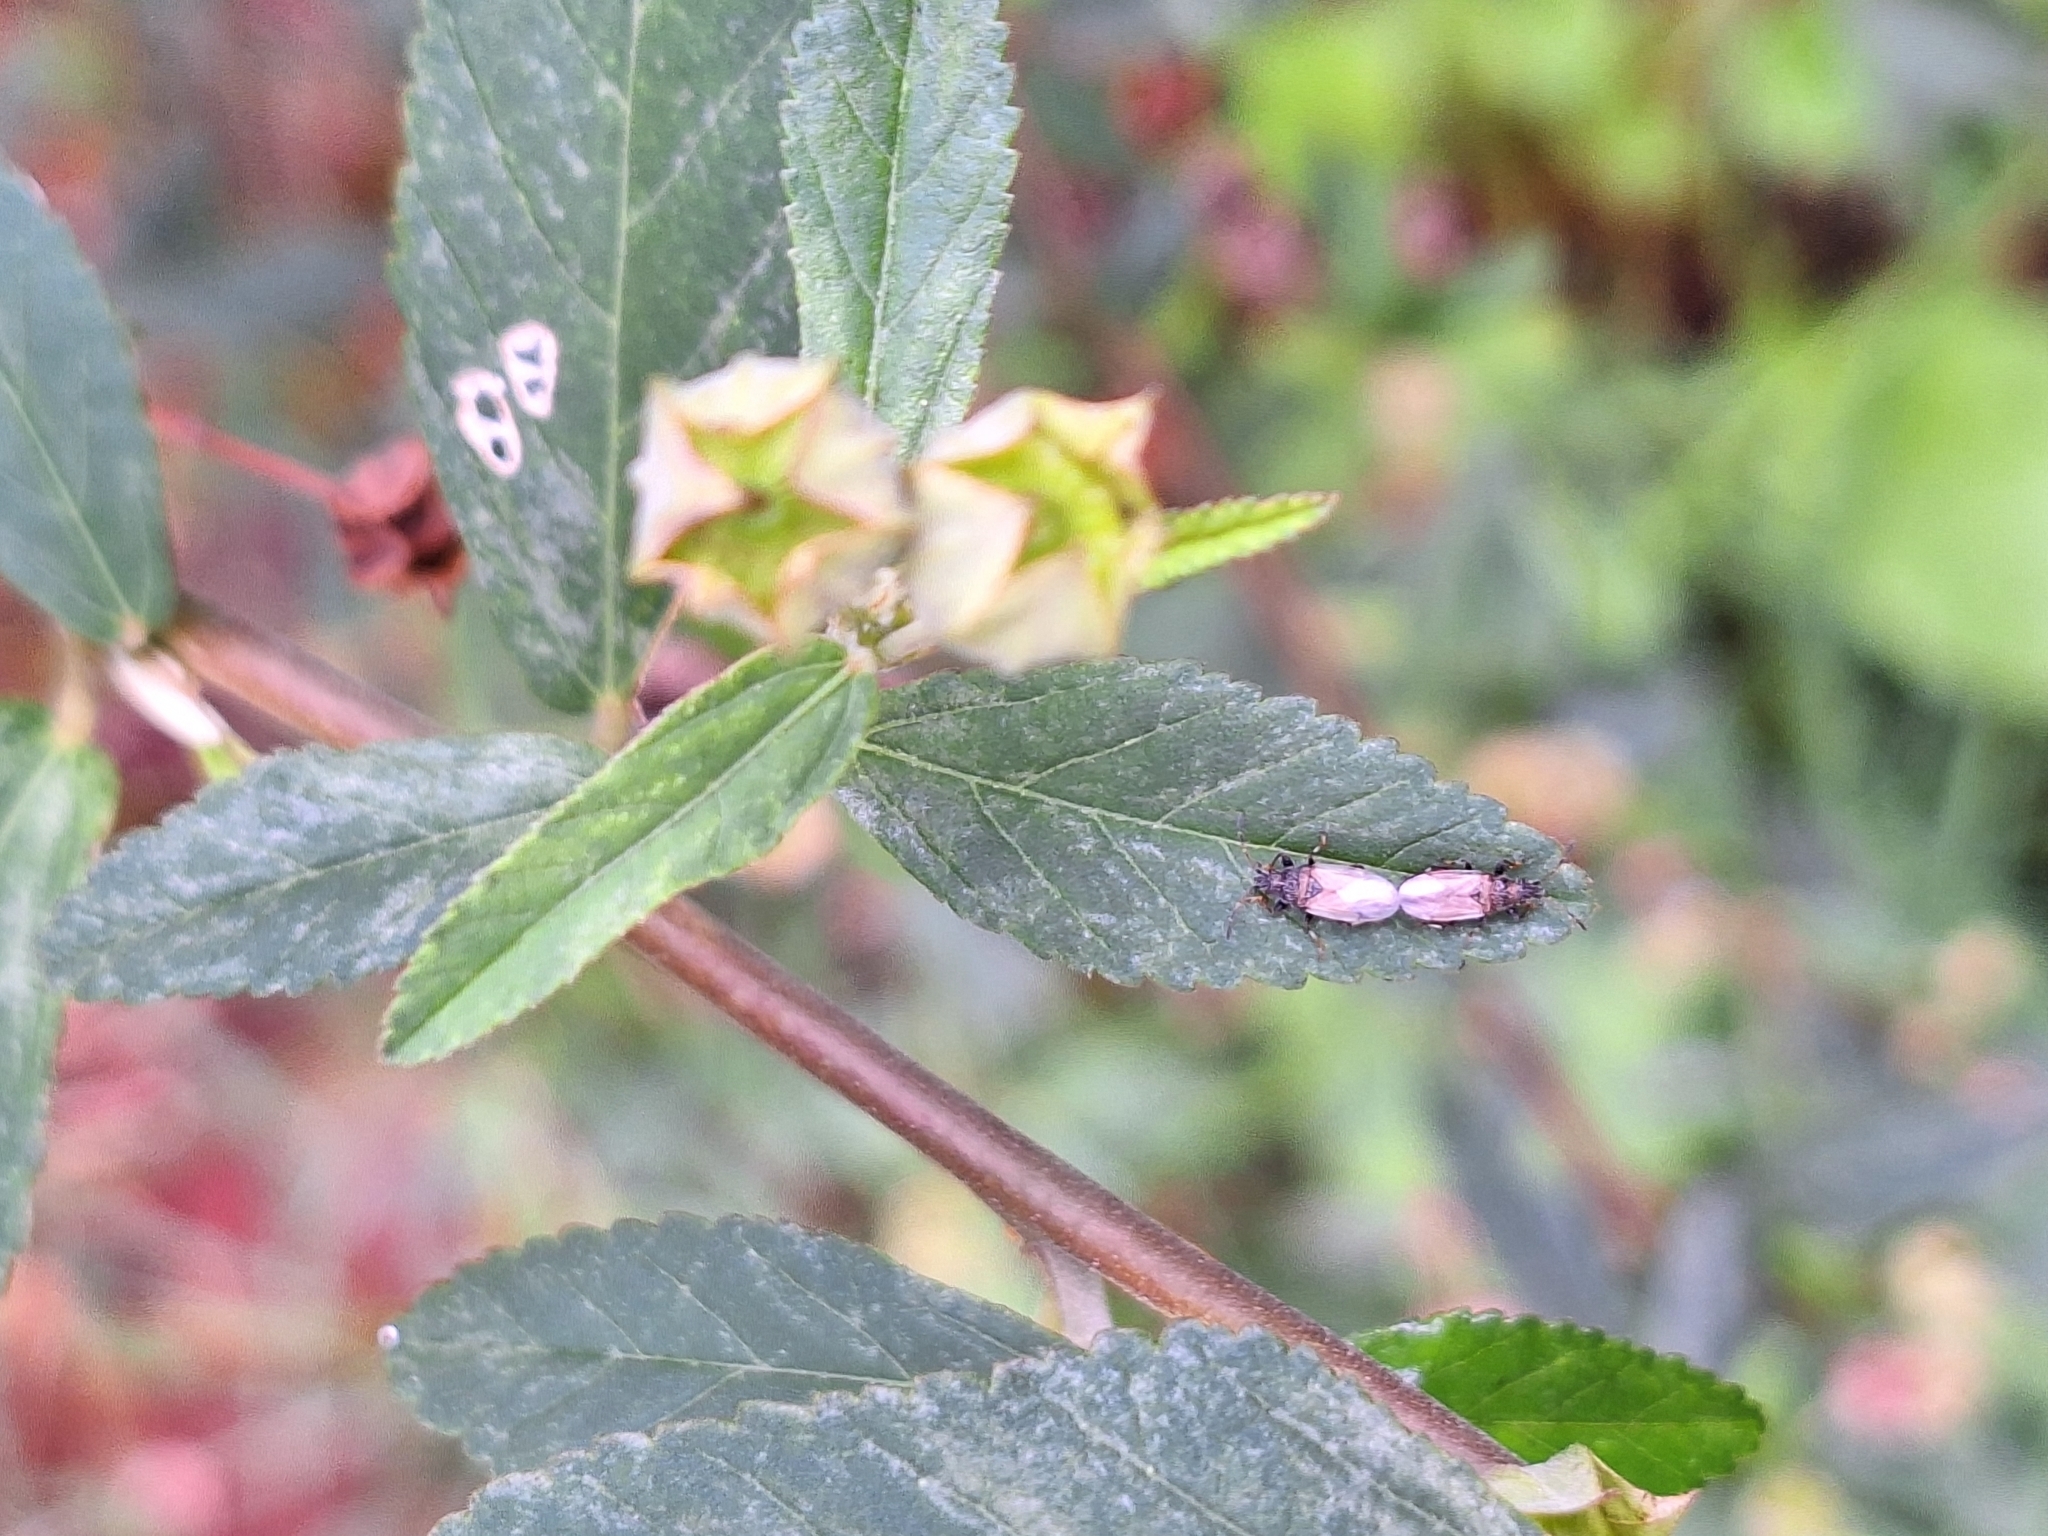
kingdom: Animalia
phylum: Arthropoda
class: Insecta
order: Hemiptera
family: Oxycarenidae
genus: Oxycarenus
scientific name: Oxycarenus hyalinipennis
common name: Cotton seed bug
